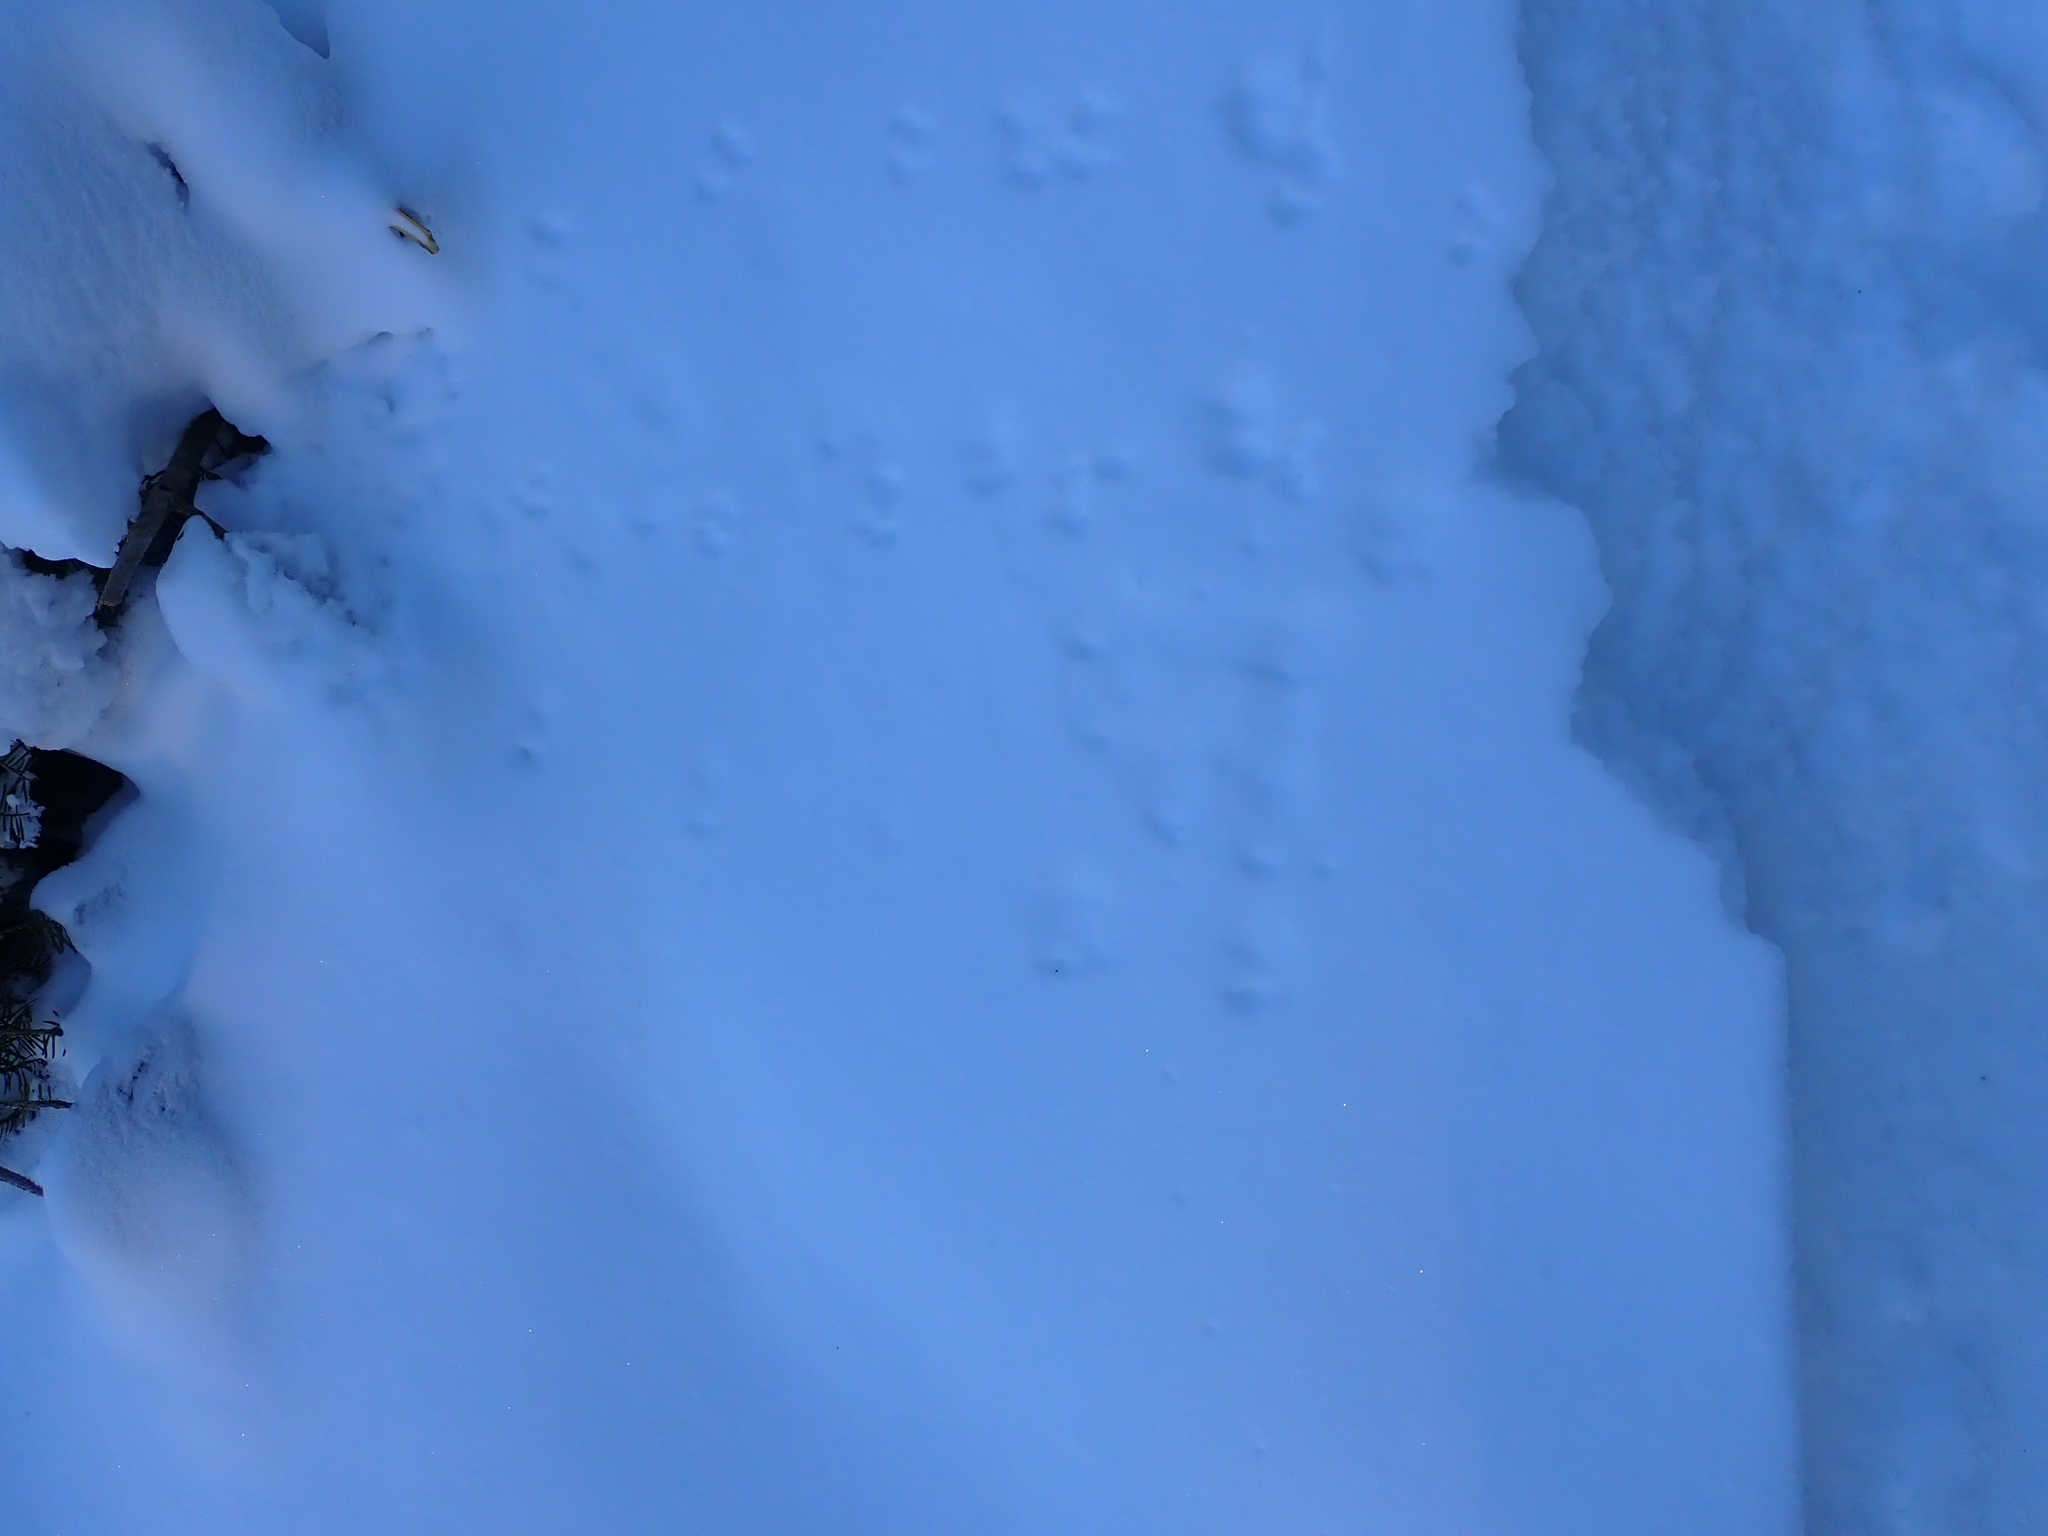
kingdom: Animalia
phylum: Chordata
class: Mammalia
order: Rodentia
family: Cricetidae
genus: Peromyscus
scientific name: Peromyscus maniculatus
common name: Deer mouse
